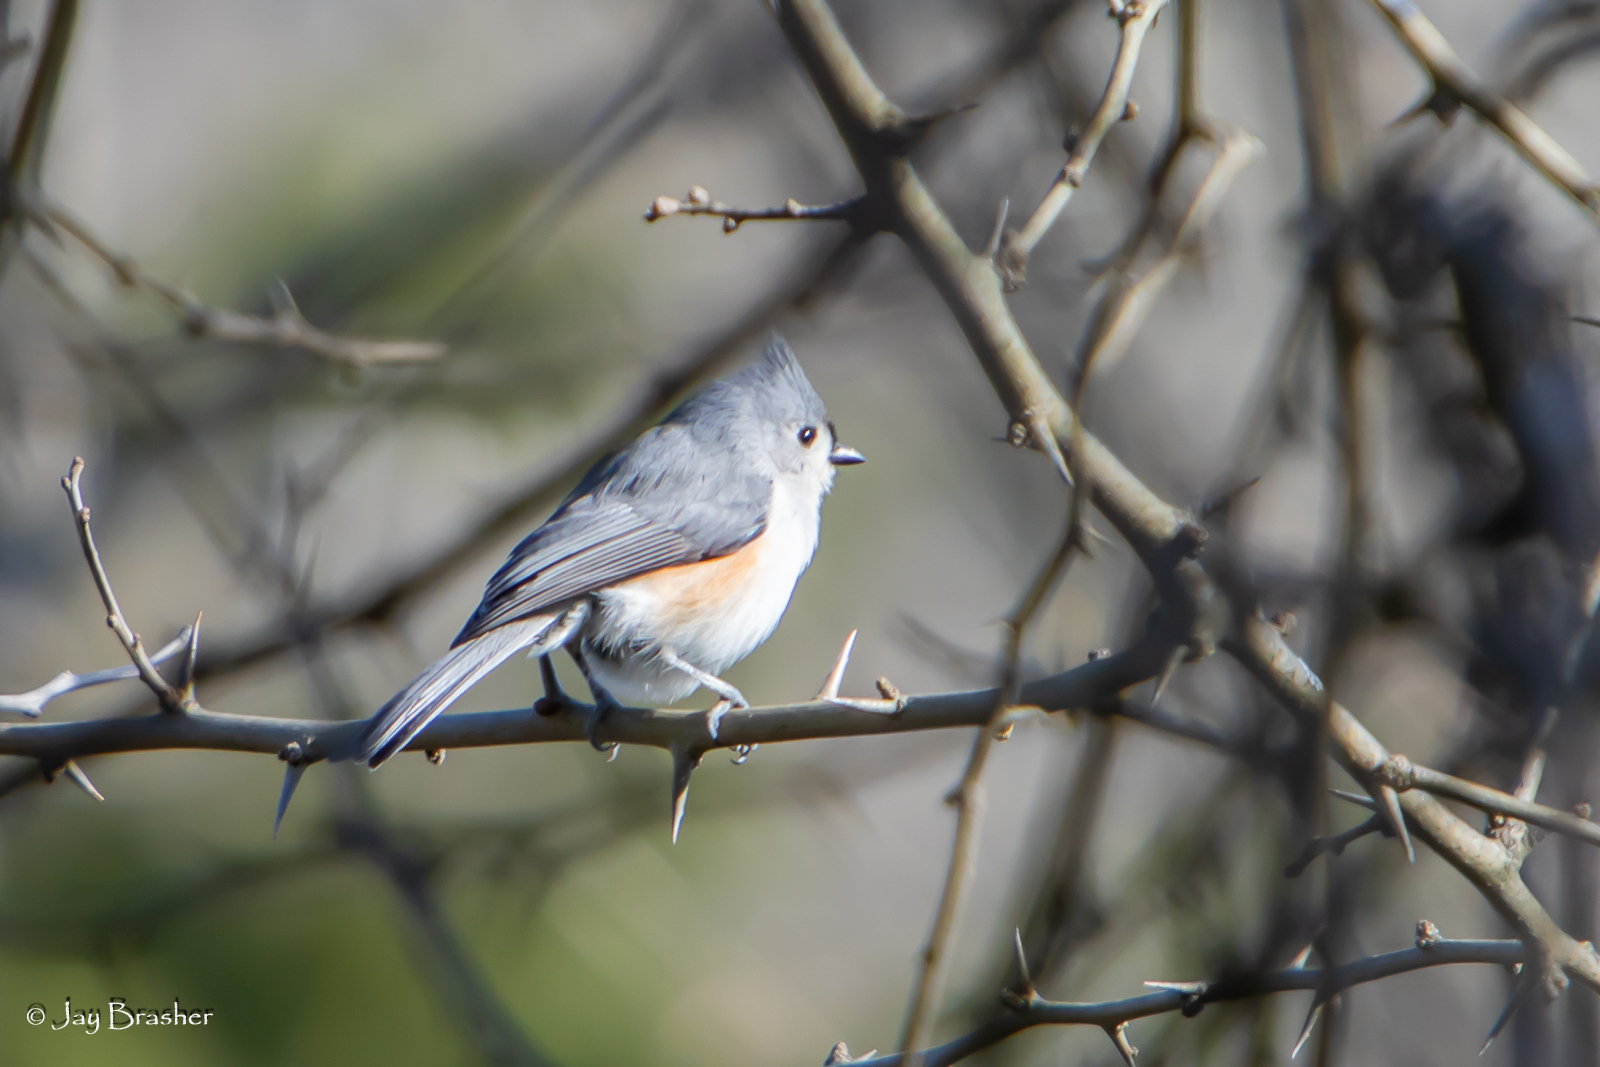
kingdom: Animalia
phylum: Chordata
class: Aves
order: Passeriformes
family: Paridae
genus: Baeolophus
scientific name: Baeolophus bicolor
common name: Tufted titmouse
